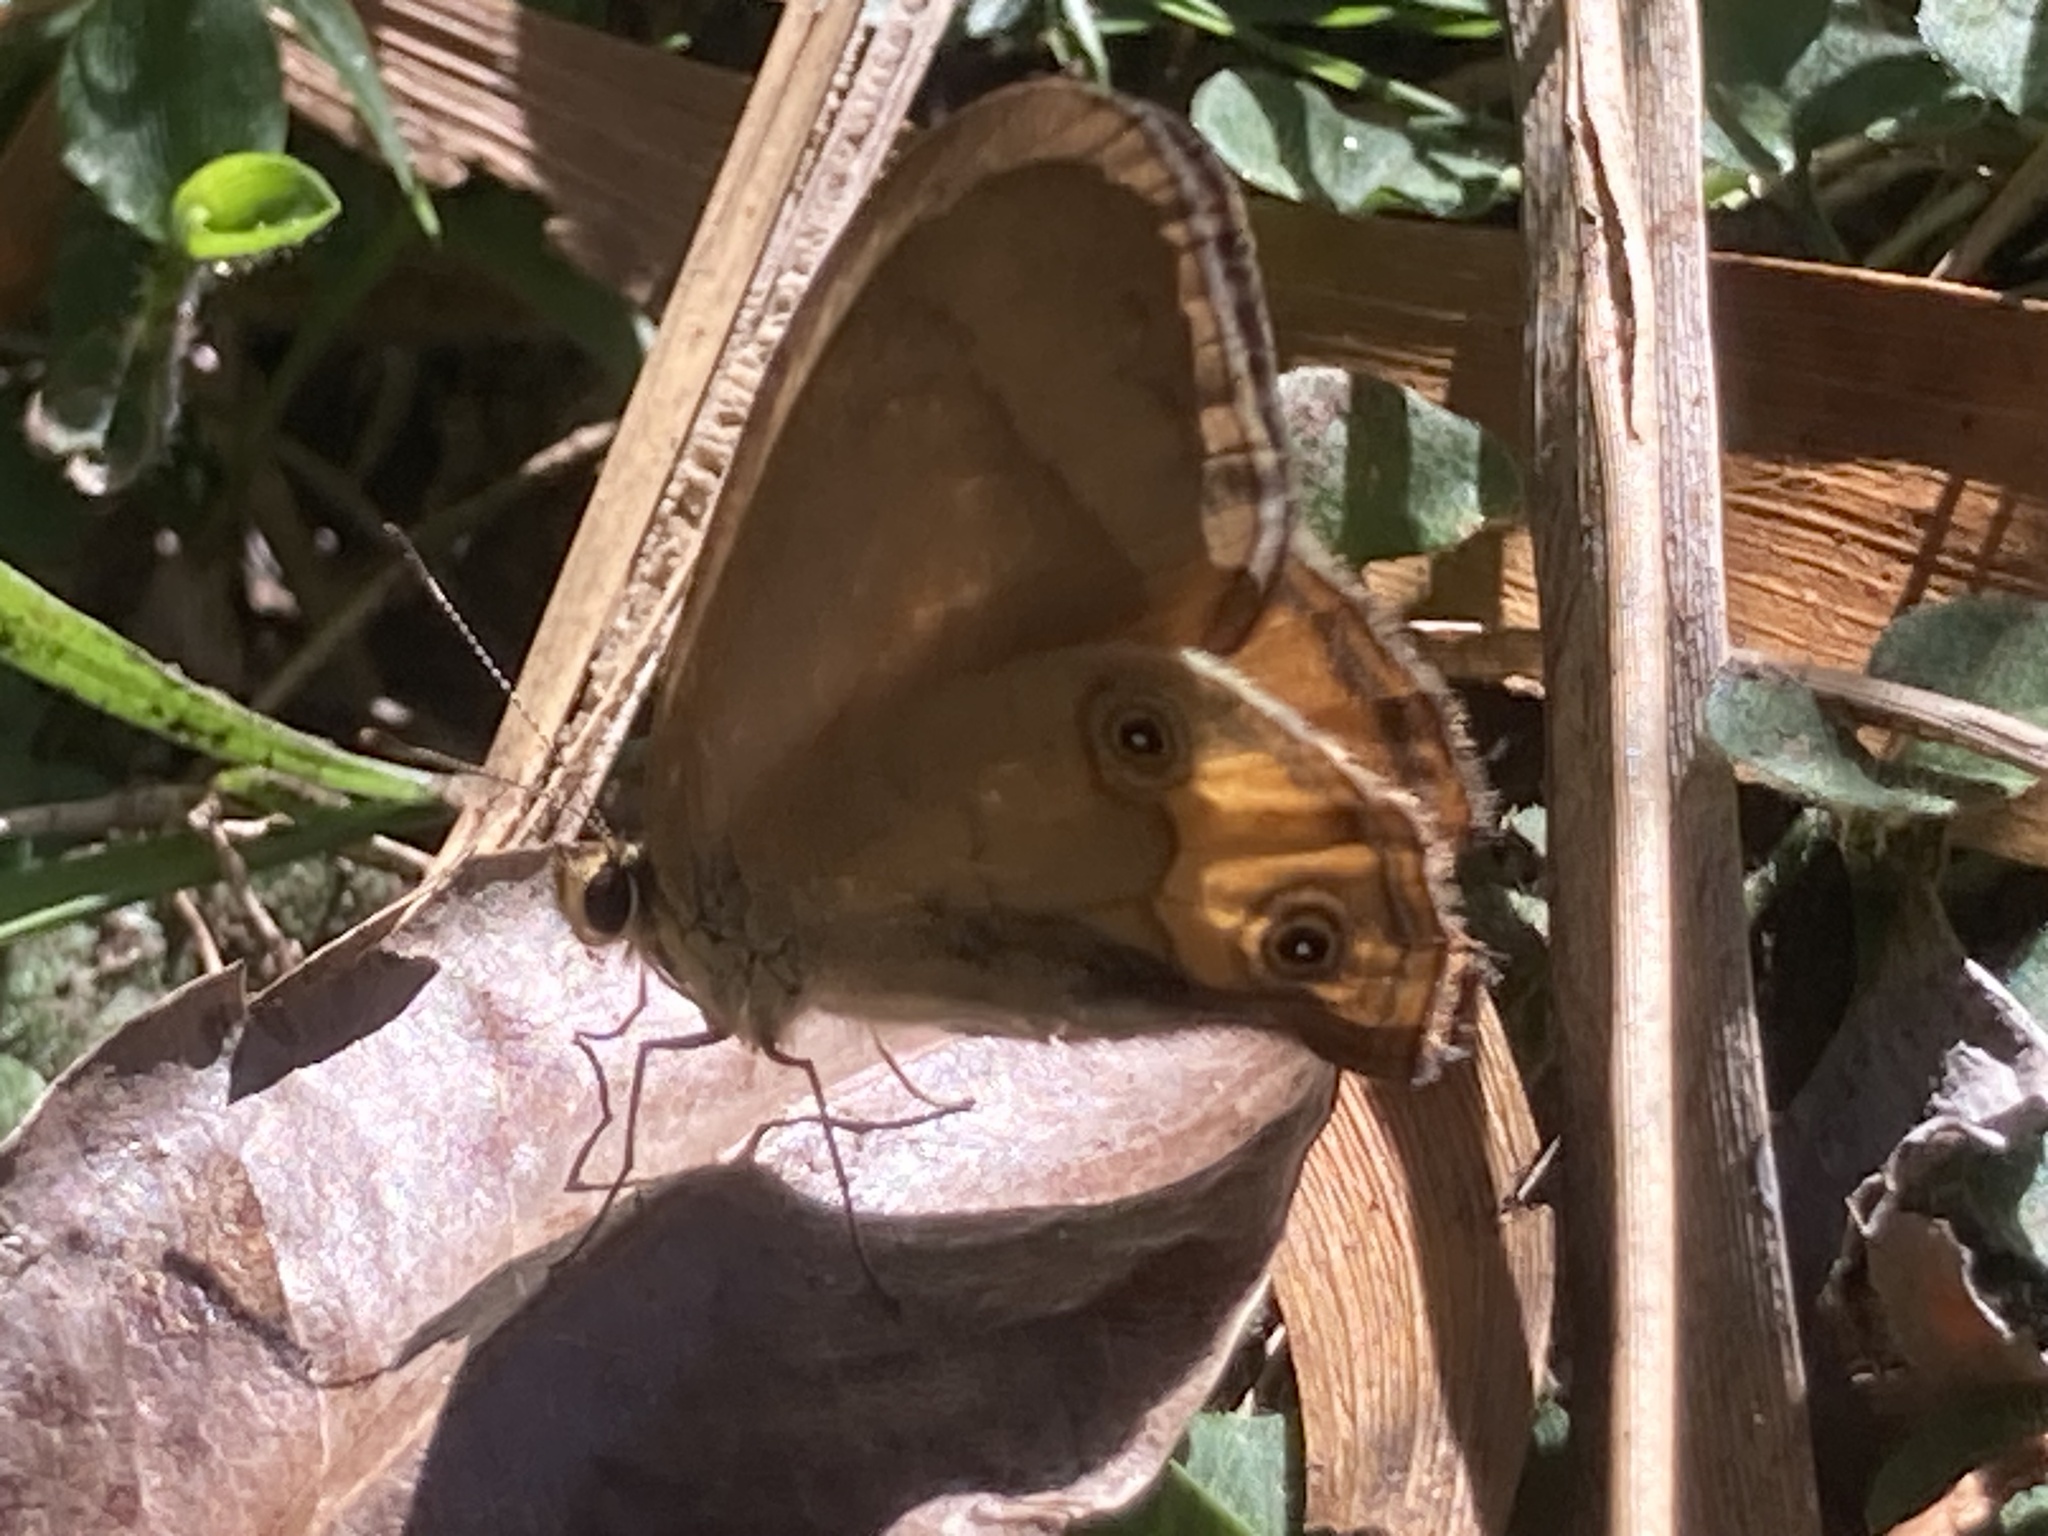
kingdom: Animalia
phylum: Arthropoda
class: Insecta
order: Lepidoptera
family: Nymphalidae
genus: Hypocysta
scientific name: Hypocysta metirius
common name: Brown ringlet
